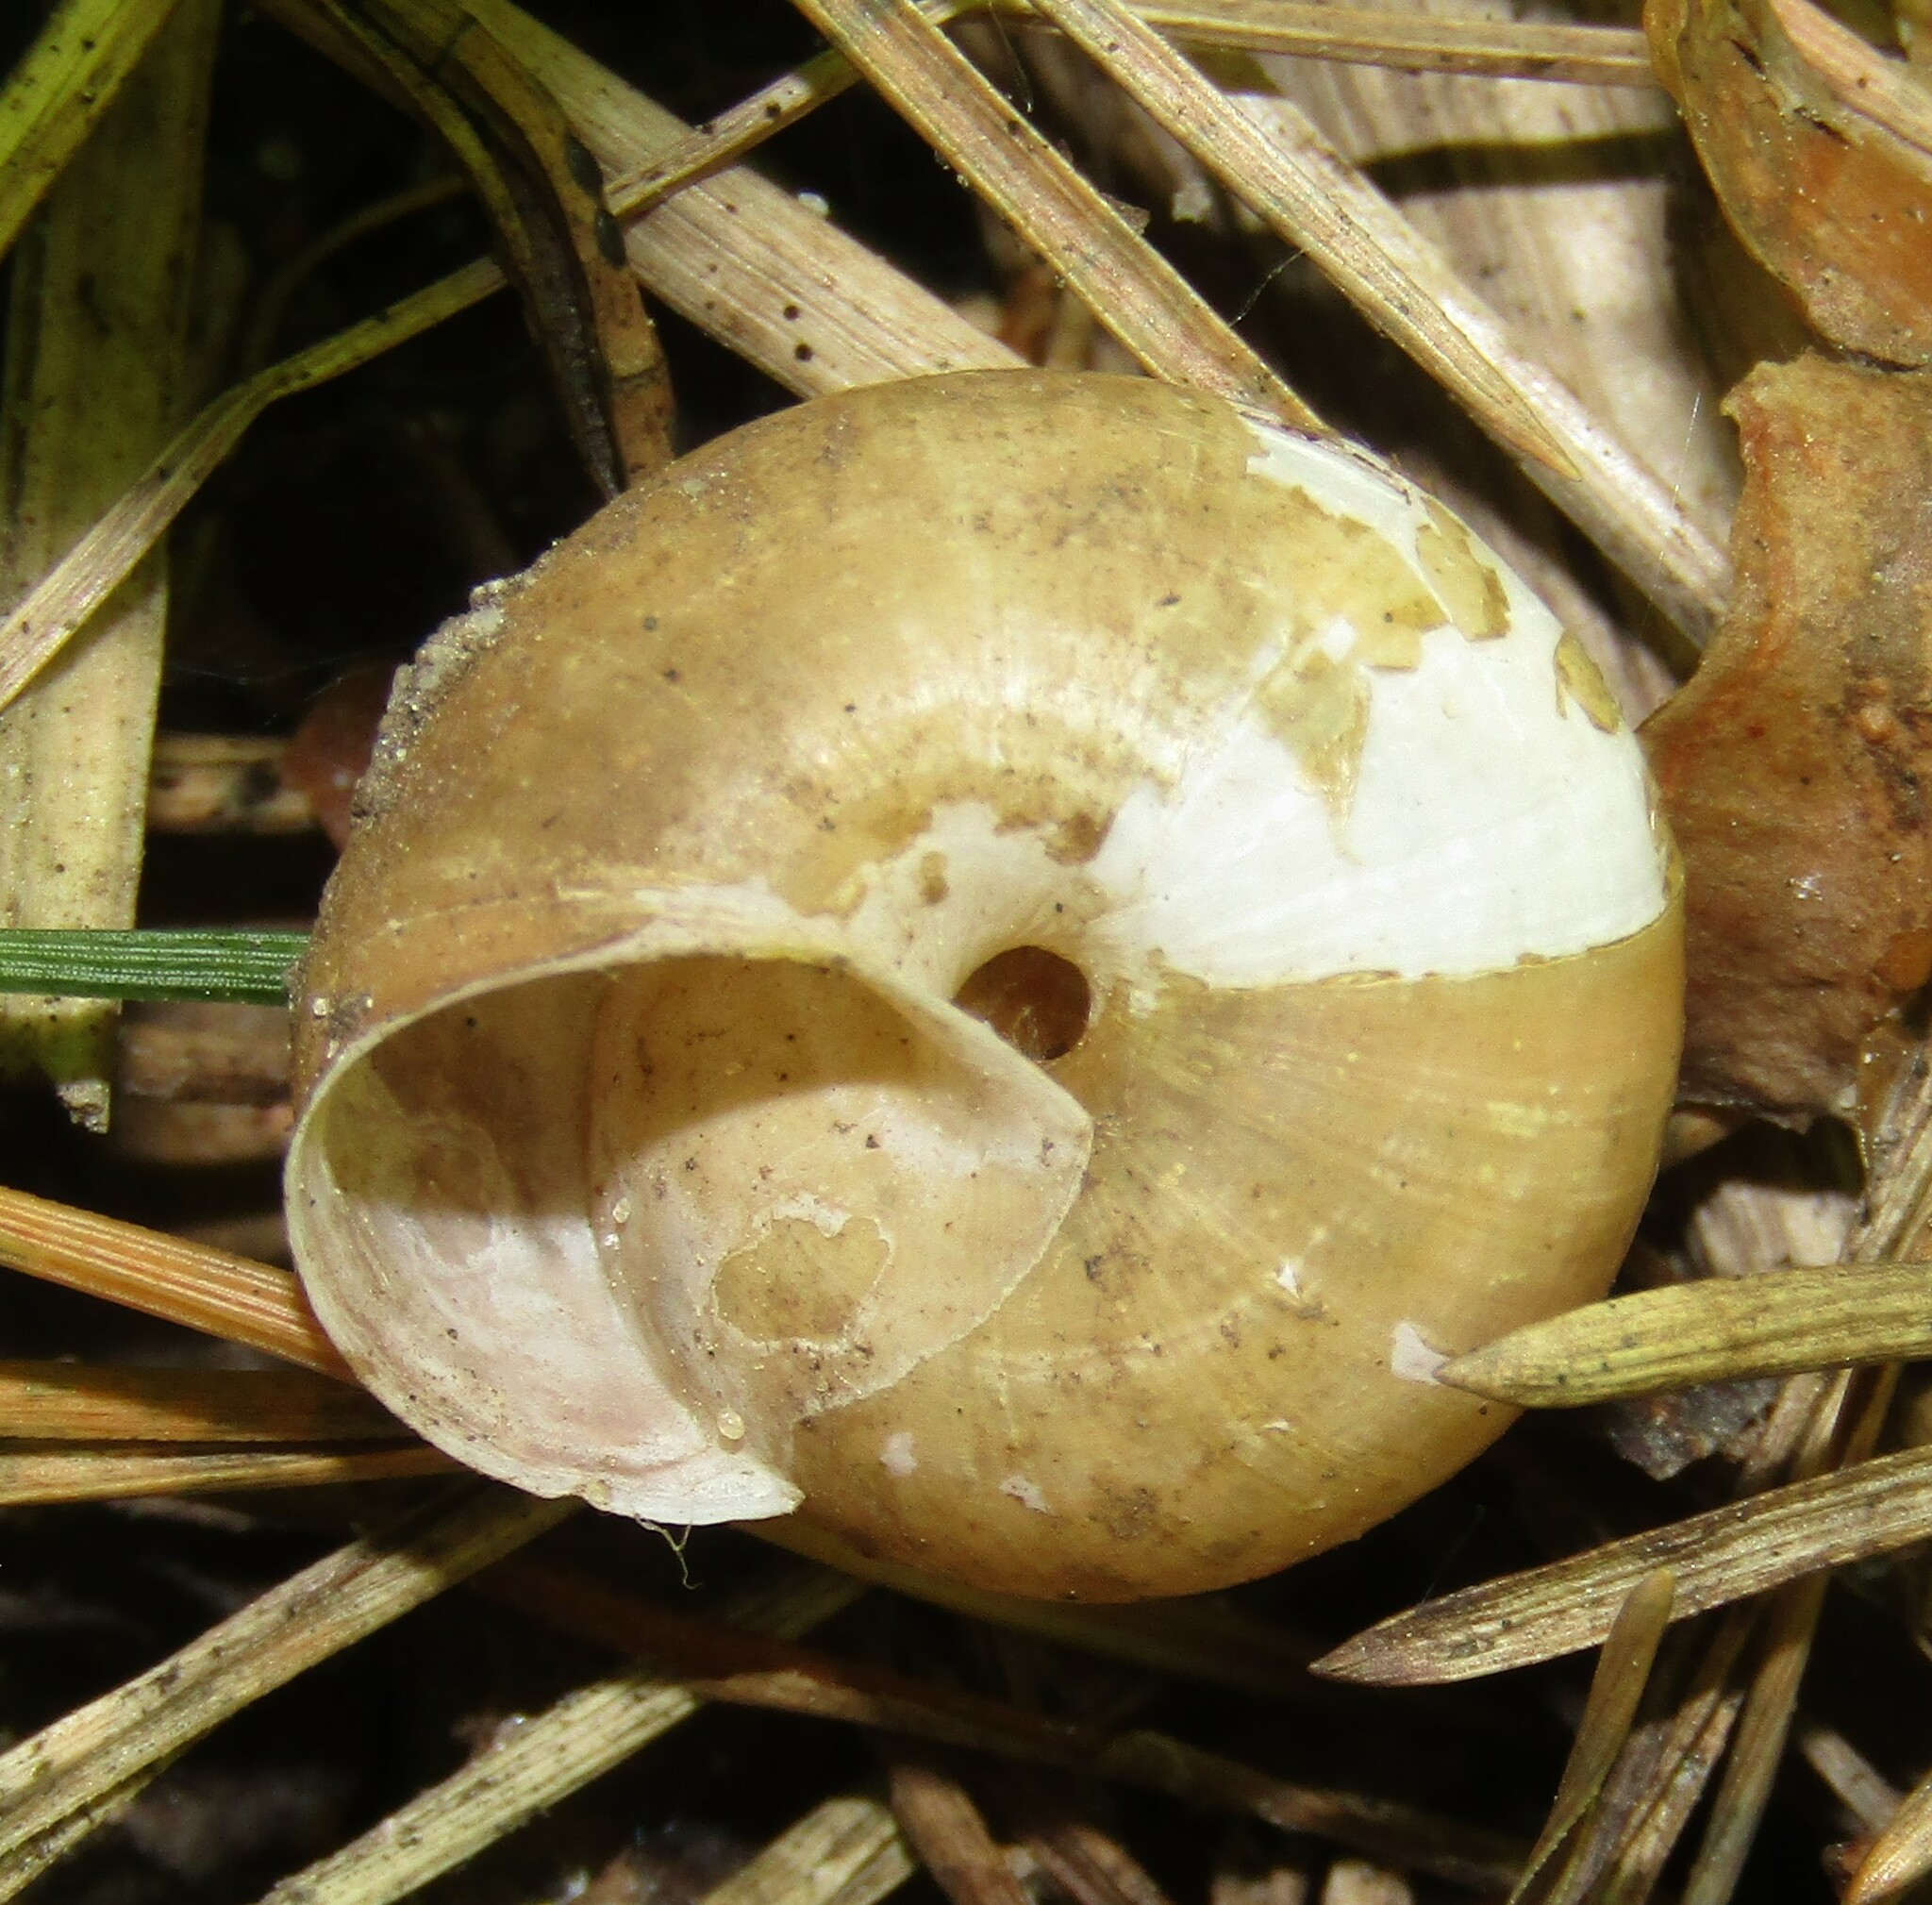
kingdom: Animalia
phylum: Mollusca
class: Gastropoda
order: Stylommatophora
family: Camaenidae
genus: Fruticicola
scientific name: Fruticicola fruticum
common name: Bush snail
